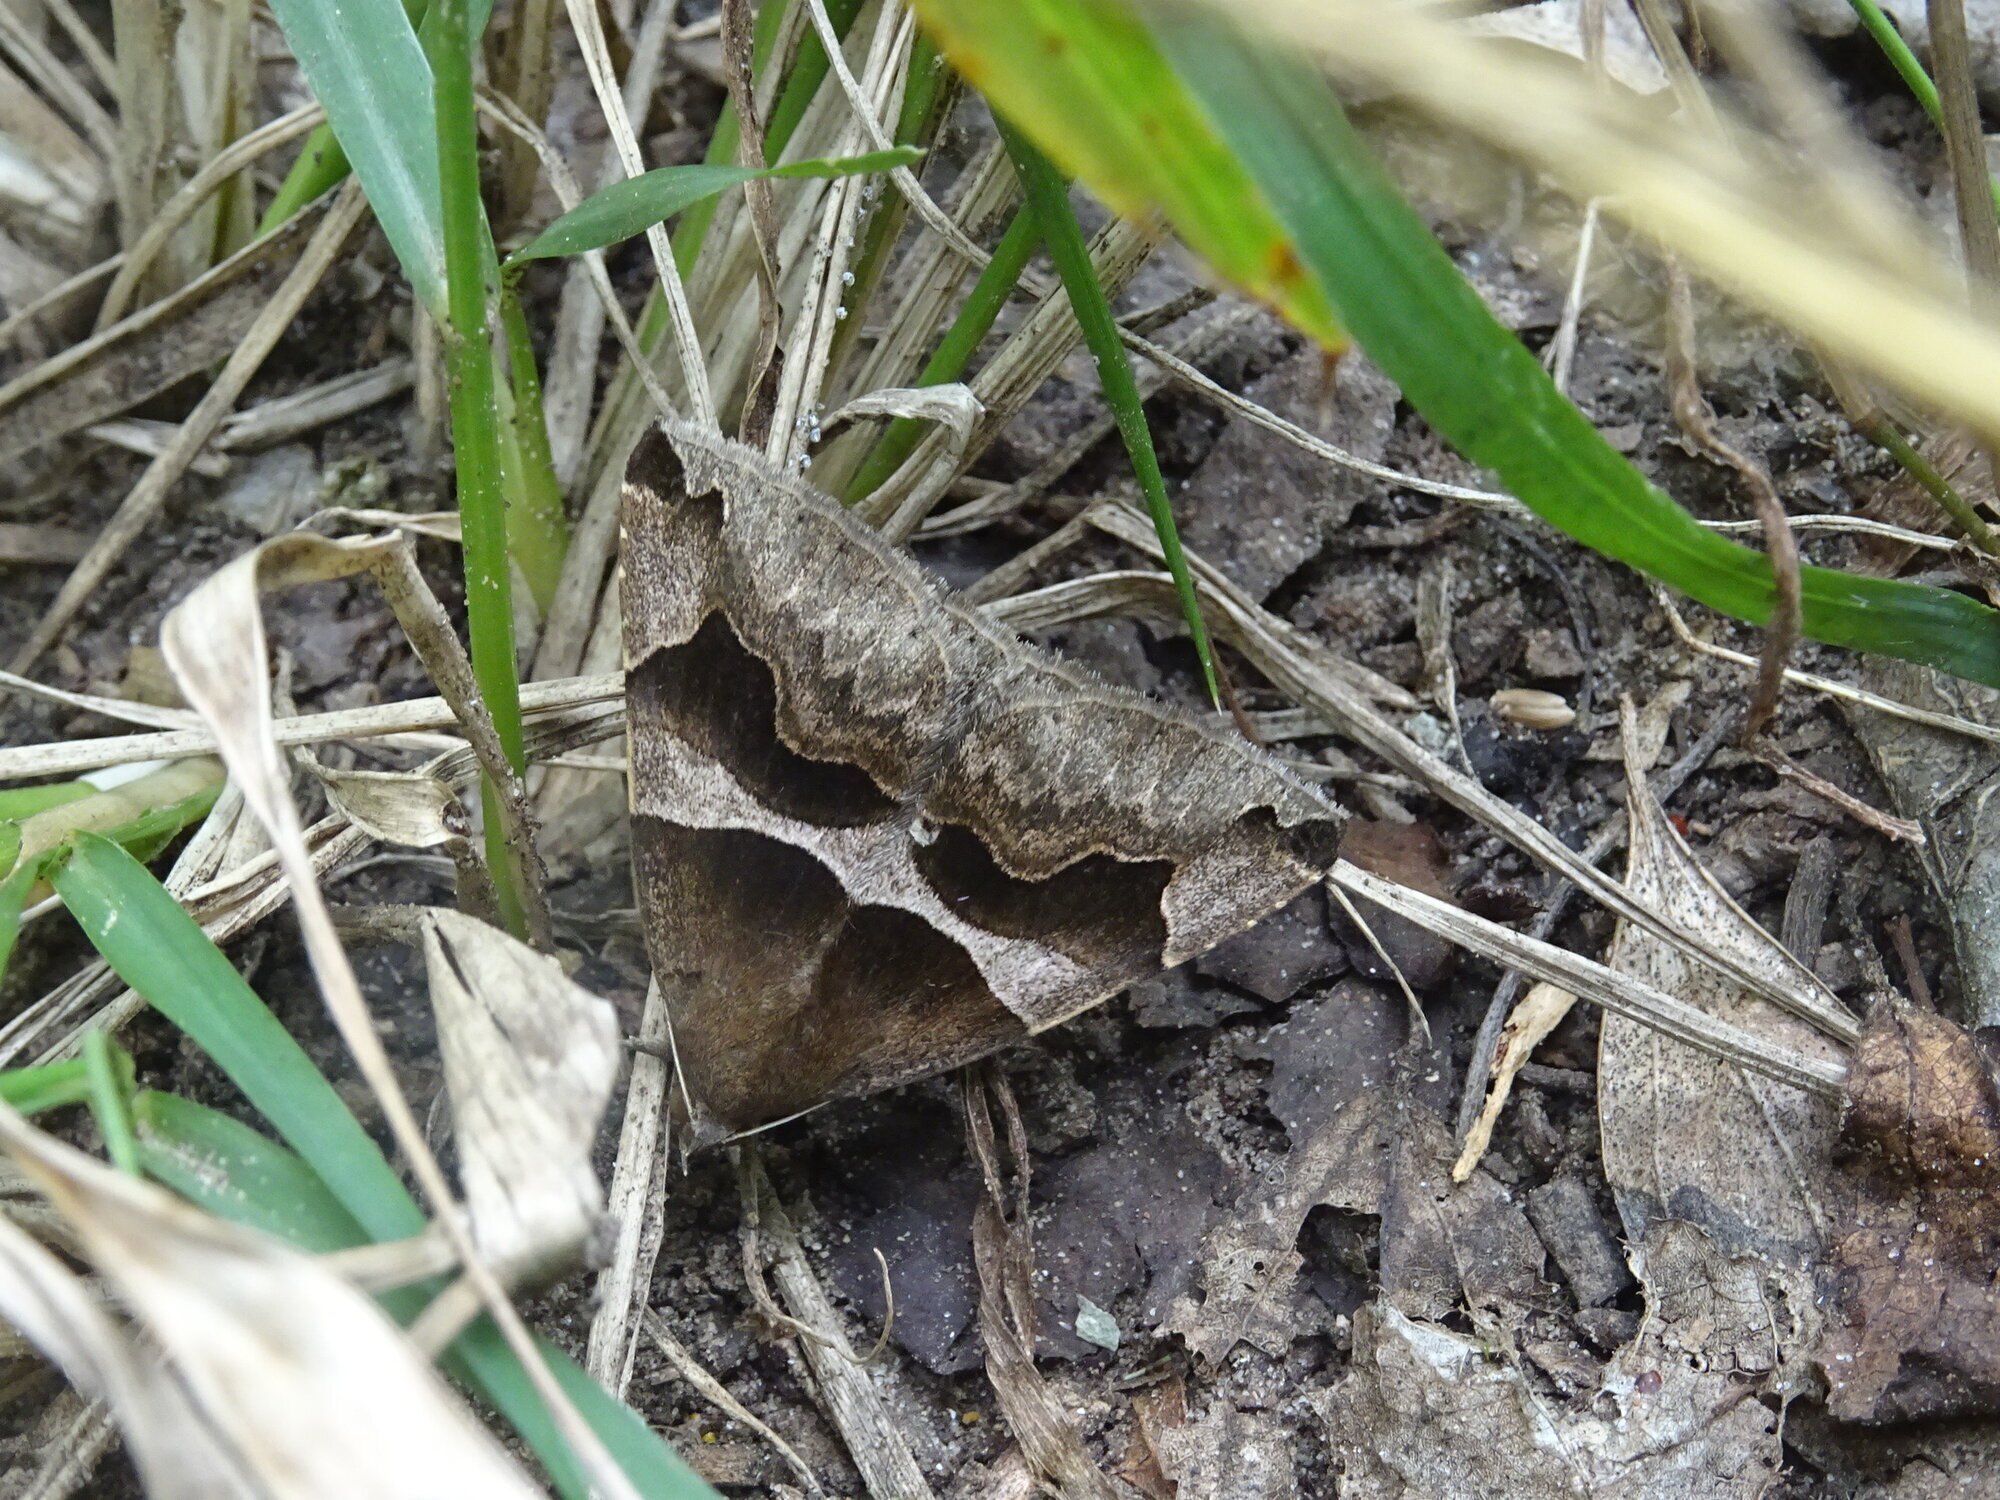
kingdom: Animalia
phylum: Arthropoda
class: Insecta
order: Lepidoptera
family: Erebidae
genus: Dysgonia
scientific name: Dysgonia torrida
